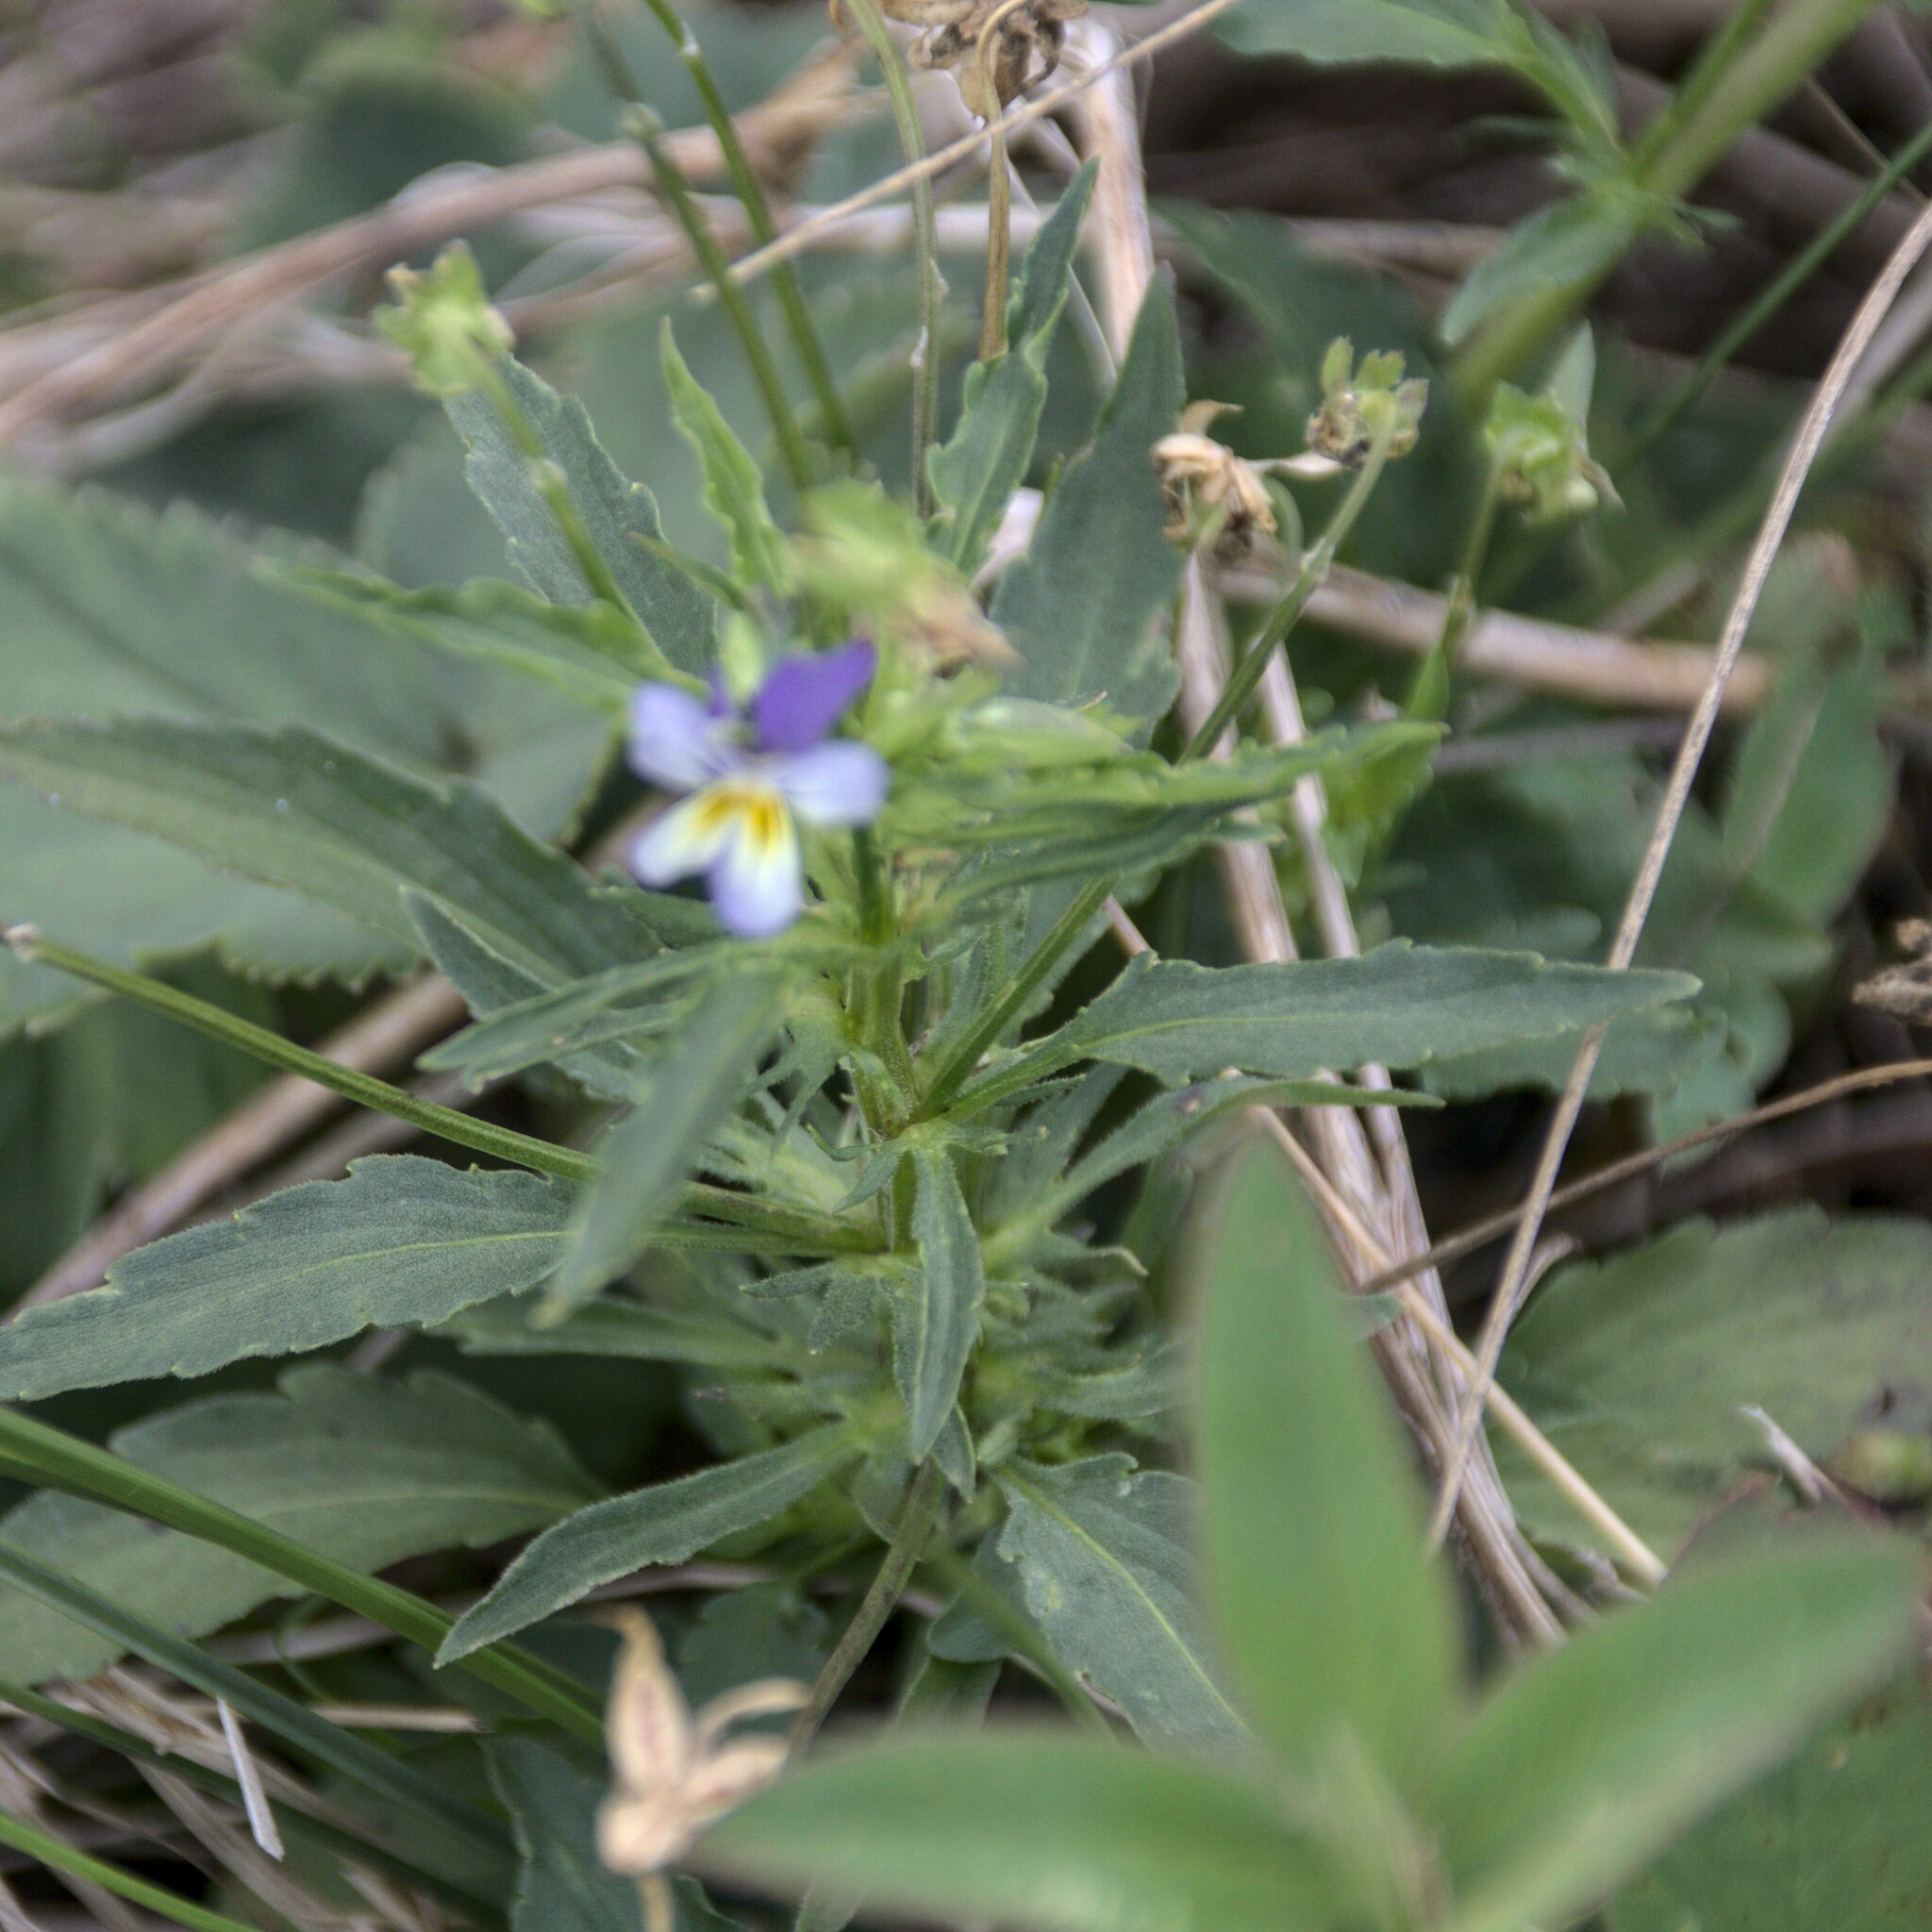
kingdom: Plantae
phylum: Tracheophyta
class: Magnoliopsida
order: Malpighiales
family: Violaceae
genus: Viola
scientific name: Viola tricolor
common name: Pansy
